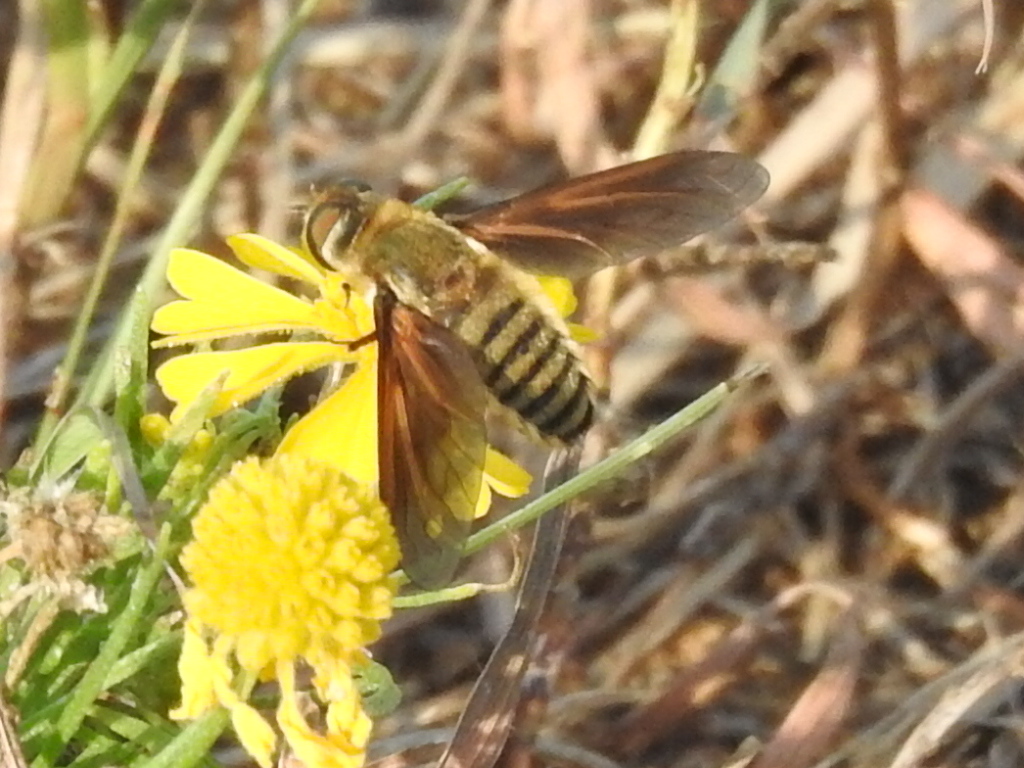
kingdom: Animalia
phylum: Arthropoda
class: Insecta
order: Diptera
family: Bombyliidae
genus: Poecilanthrax
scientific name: Poecilanthrax lucifer
